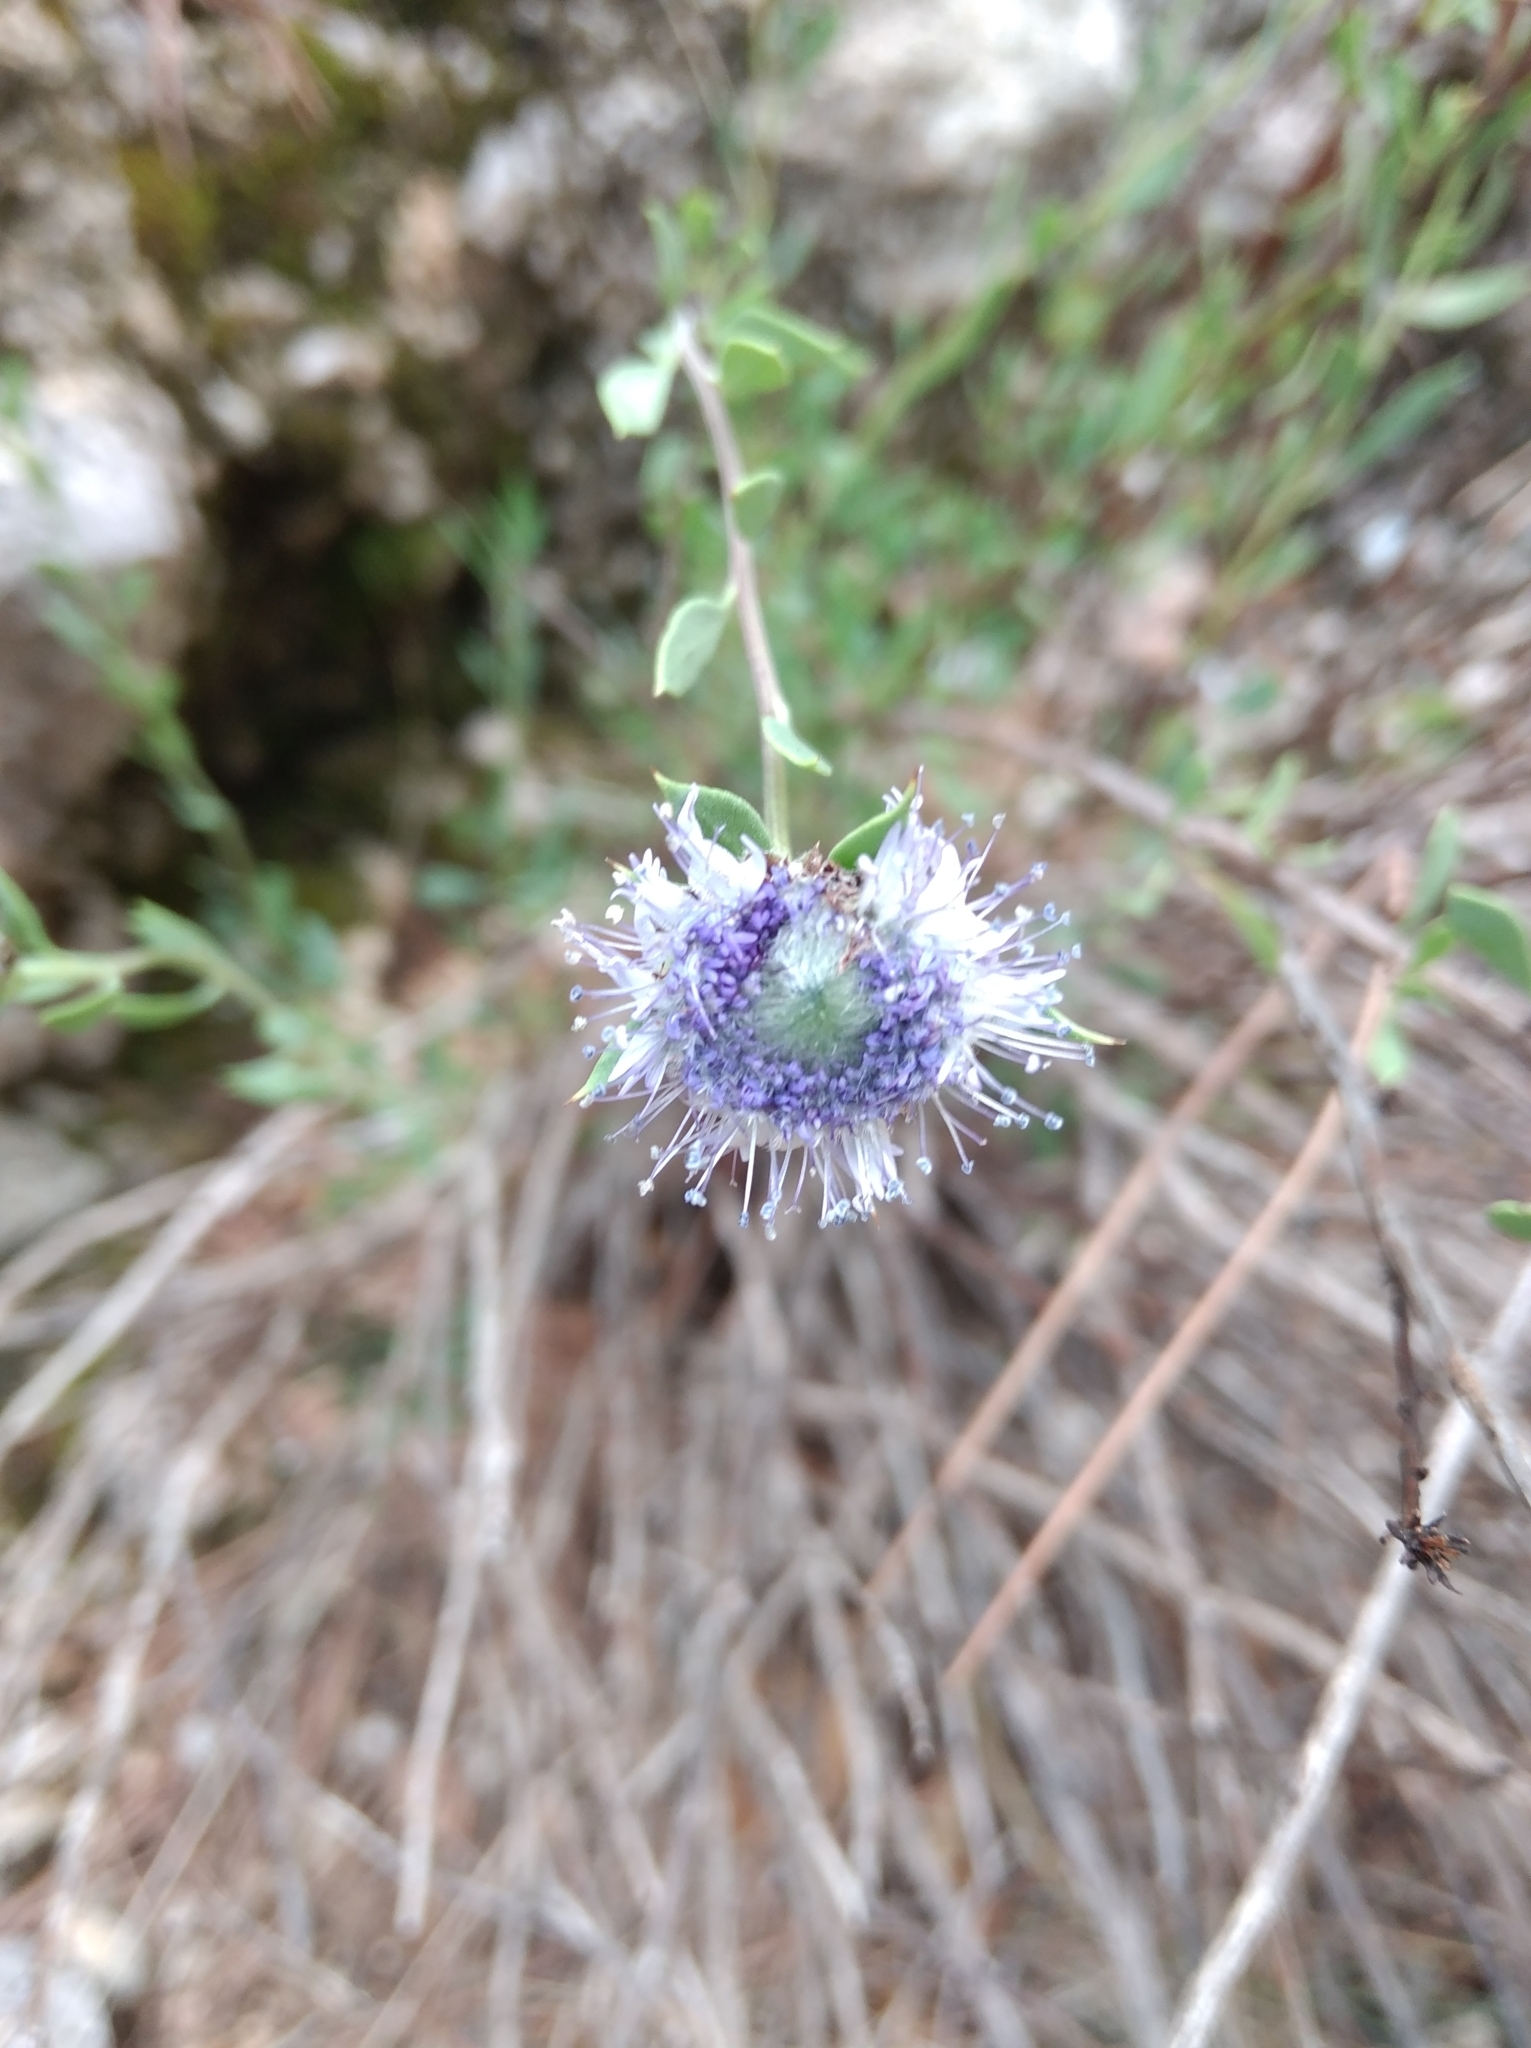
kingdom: Plantae
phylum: Tracheophyta
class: Magnoliopsida
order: Lamiales
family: Plantaginaceae
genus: Globularia
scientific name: Globularia alypum
